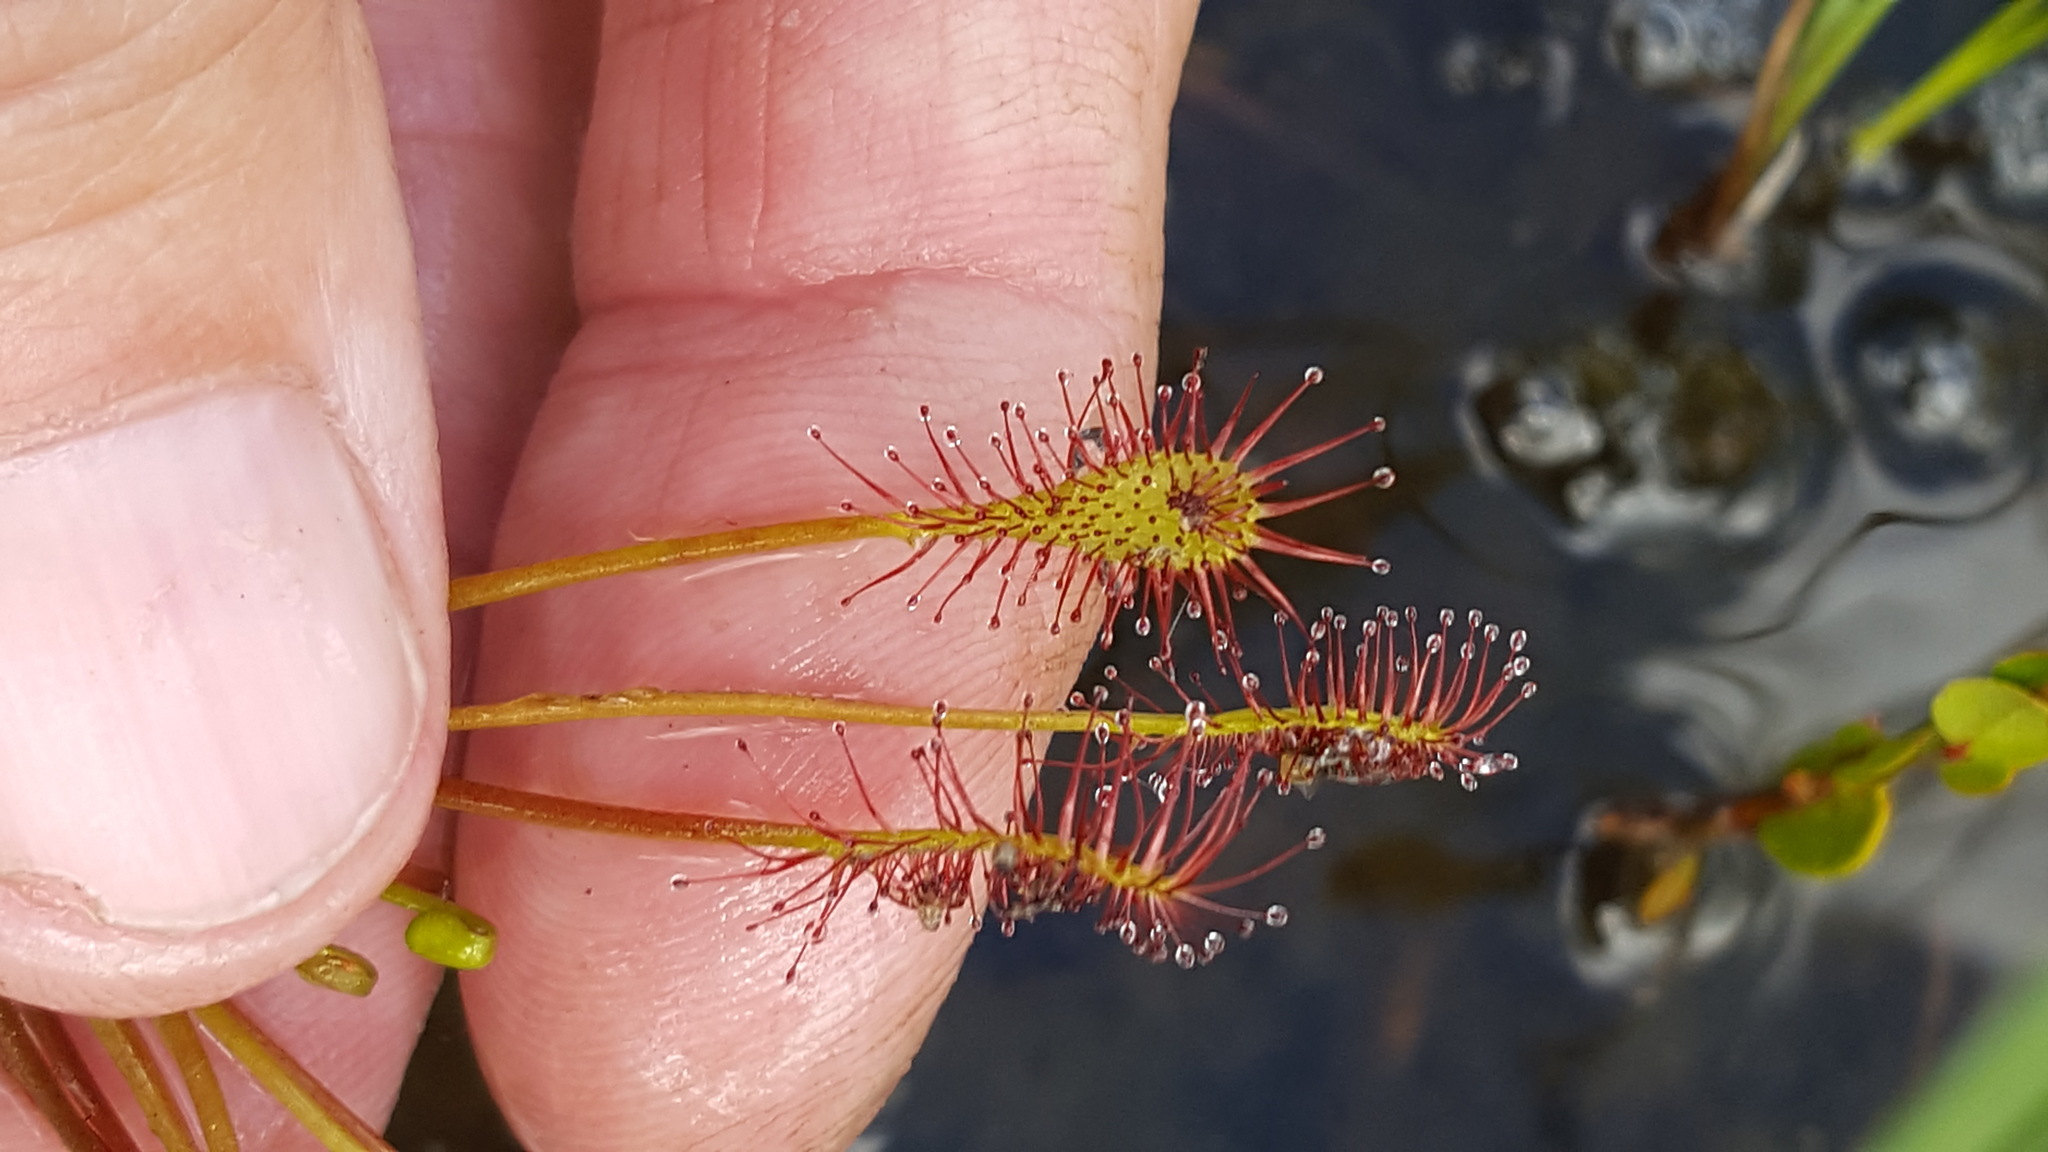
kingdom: Plantae
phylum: Tracheophyta
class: Magnoliopsida
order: Caryophyllales
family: Droseraceae
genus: Drosera
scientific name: Drosera intermedia
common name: Oblong-leaved sundew
